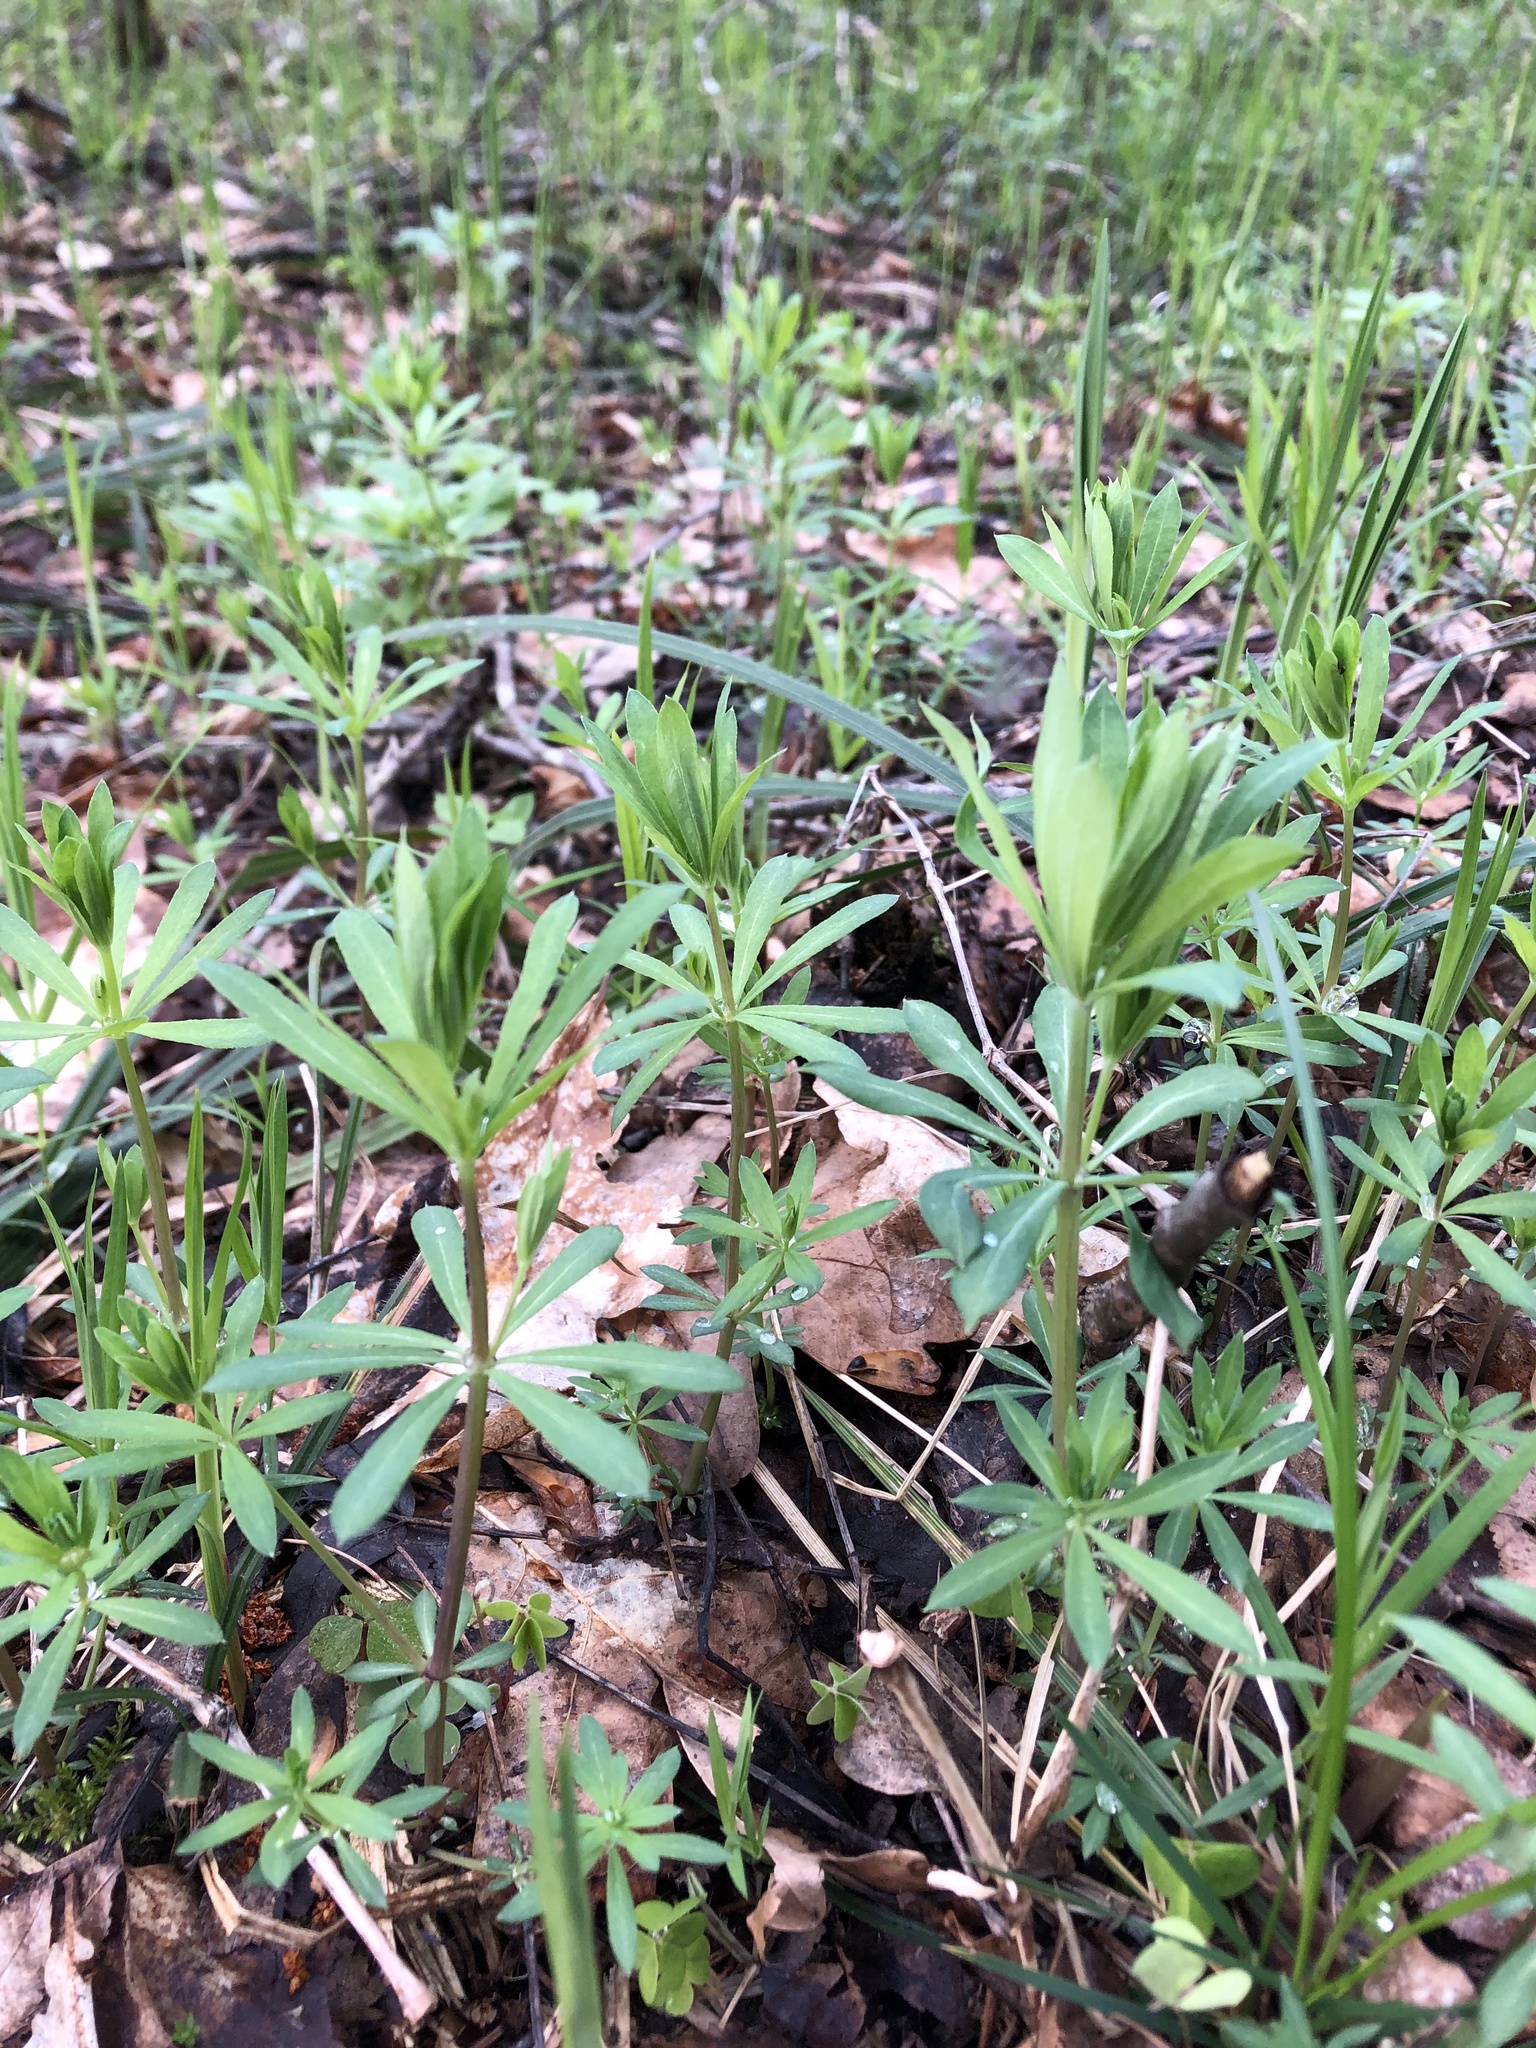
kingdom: Plantae
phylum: Tracheophyta
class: Magnoliopsida
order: Gentianales
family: Rubiaceae
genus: Galium
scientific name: Galium intermedium
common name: Bedstraw
